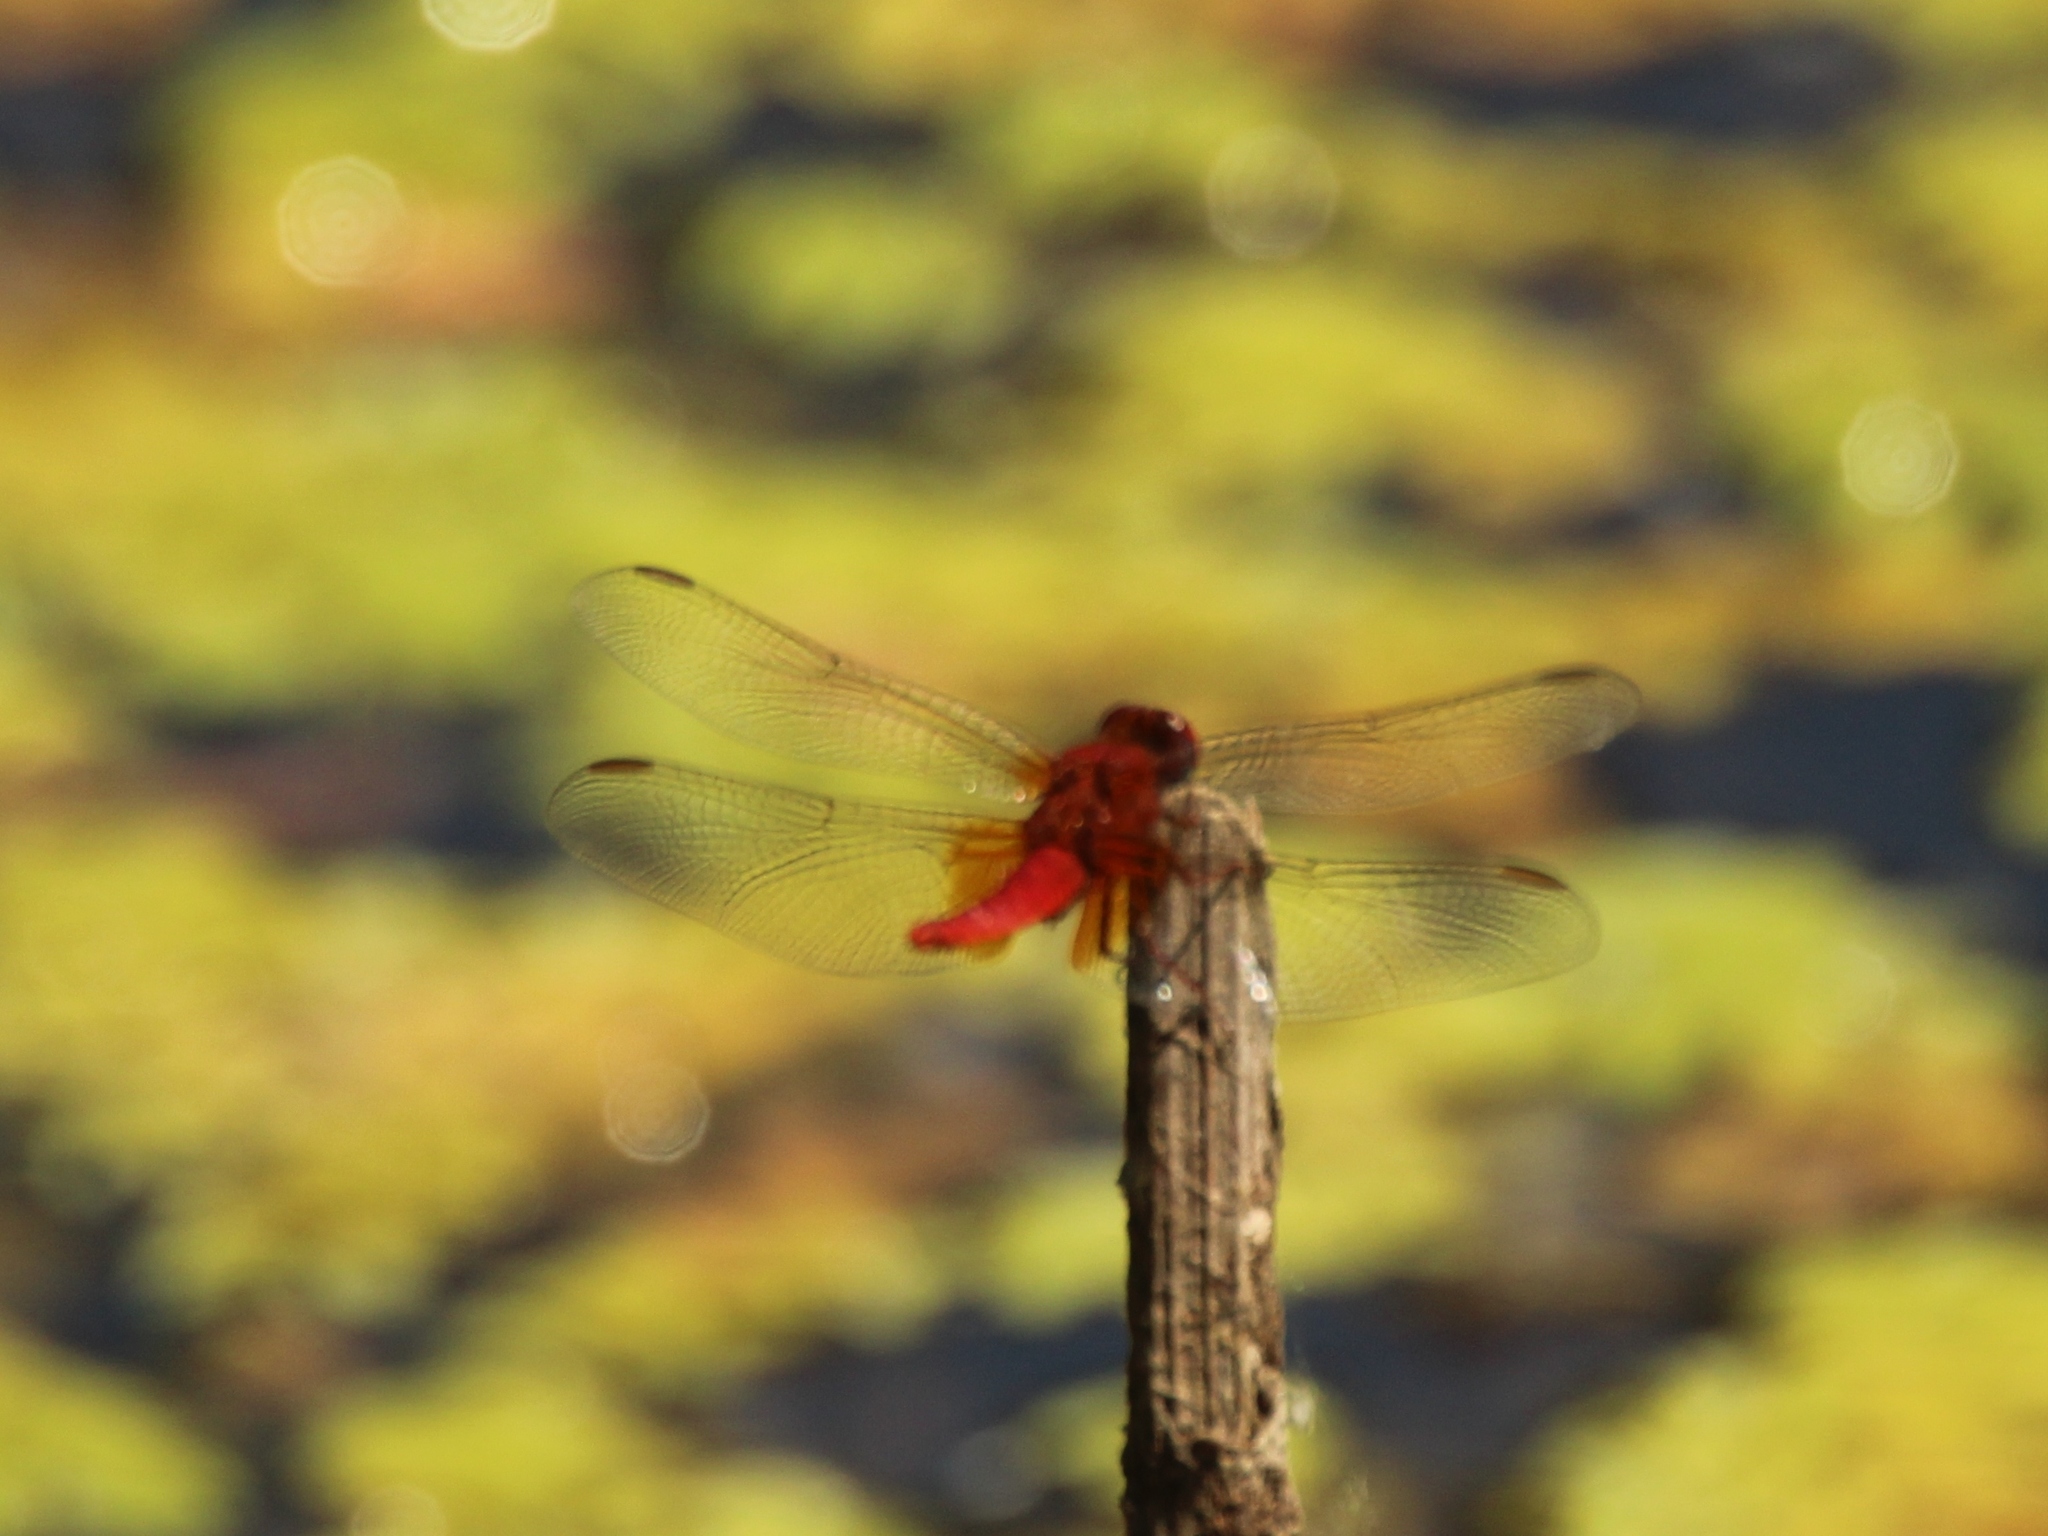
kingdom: Animalia
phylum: Arthropoda
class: Insecta
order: Odonata
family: Libellulidae
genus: Crocothemis
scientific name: Crocothemis erythraea
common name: Scarlet dragonfly
